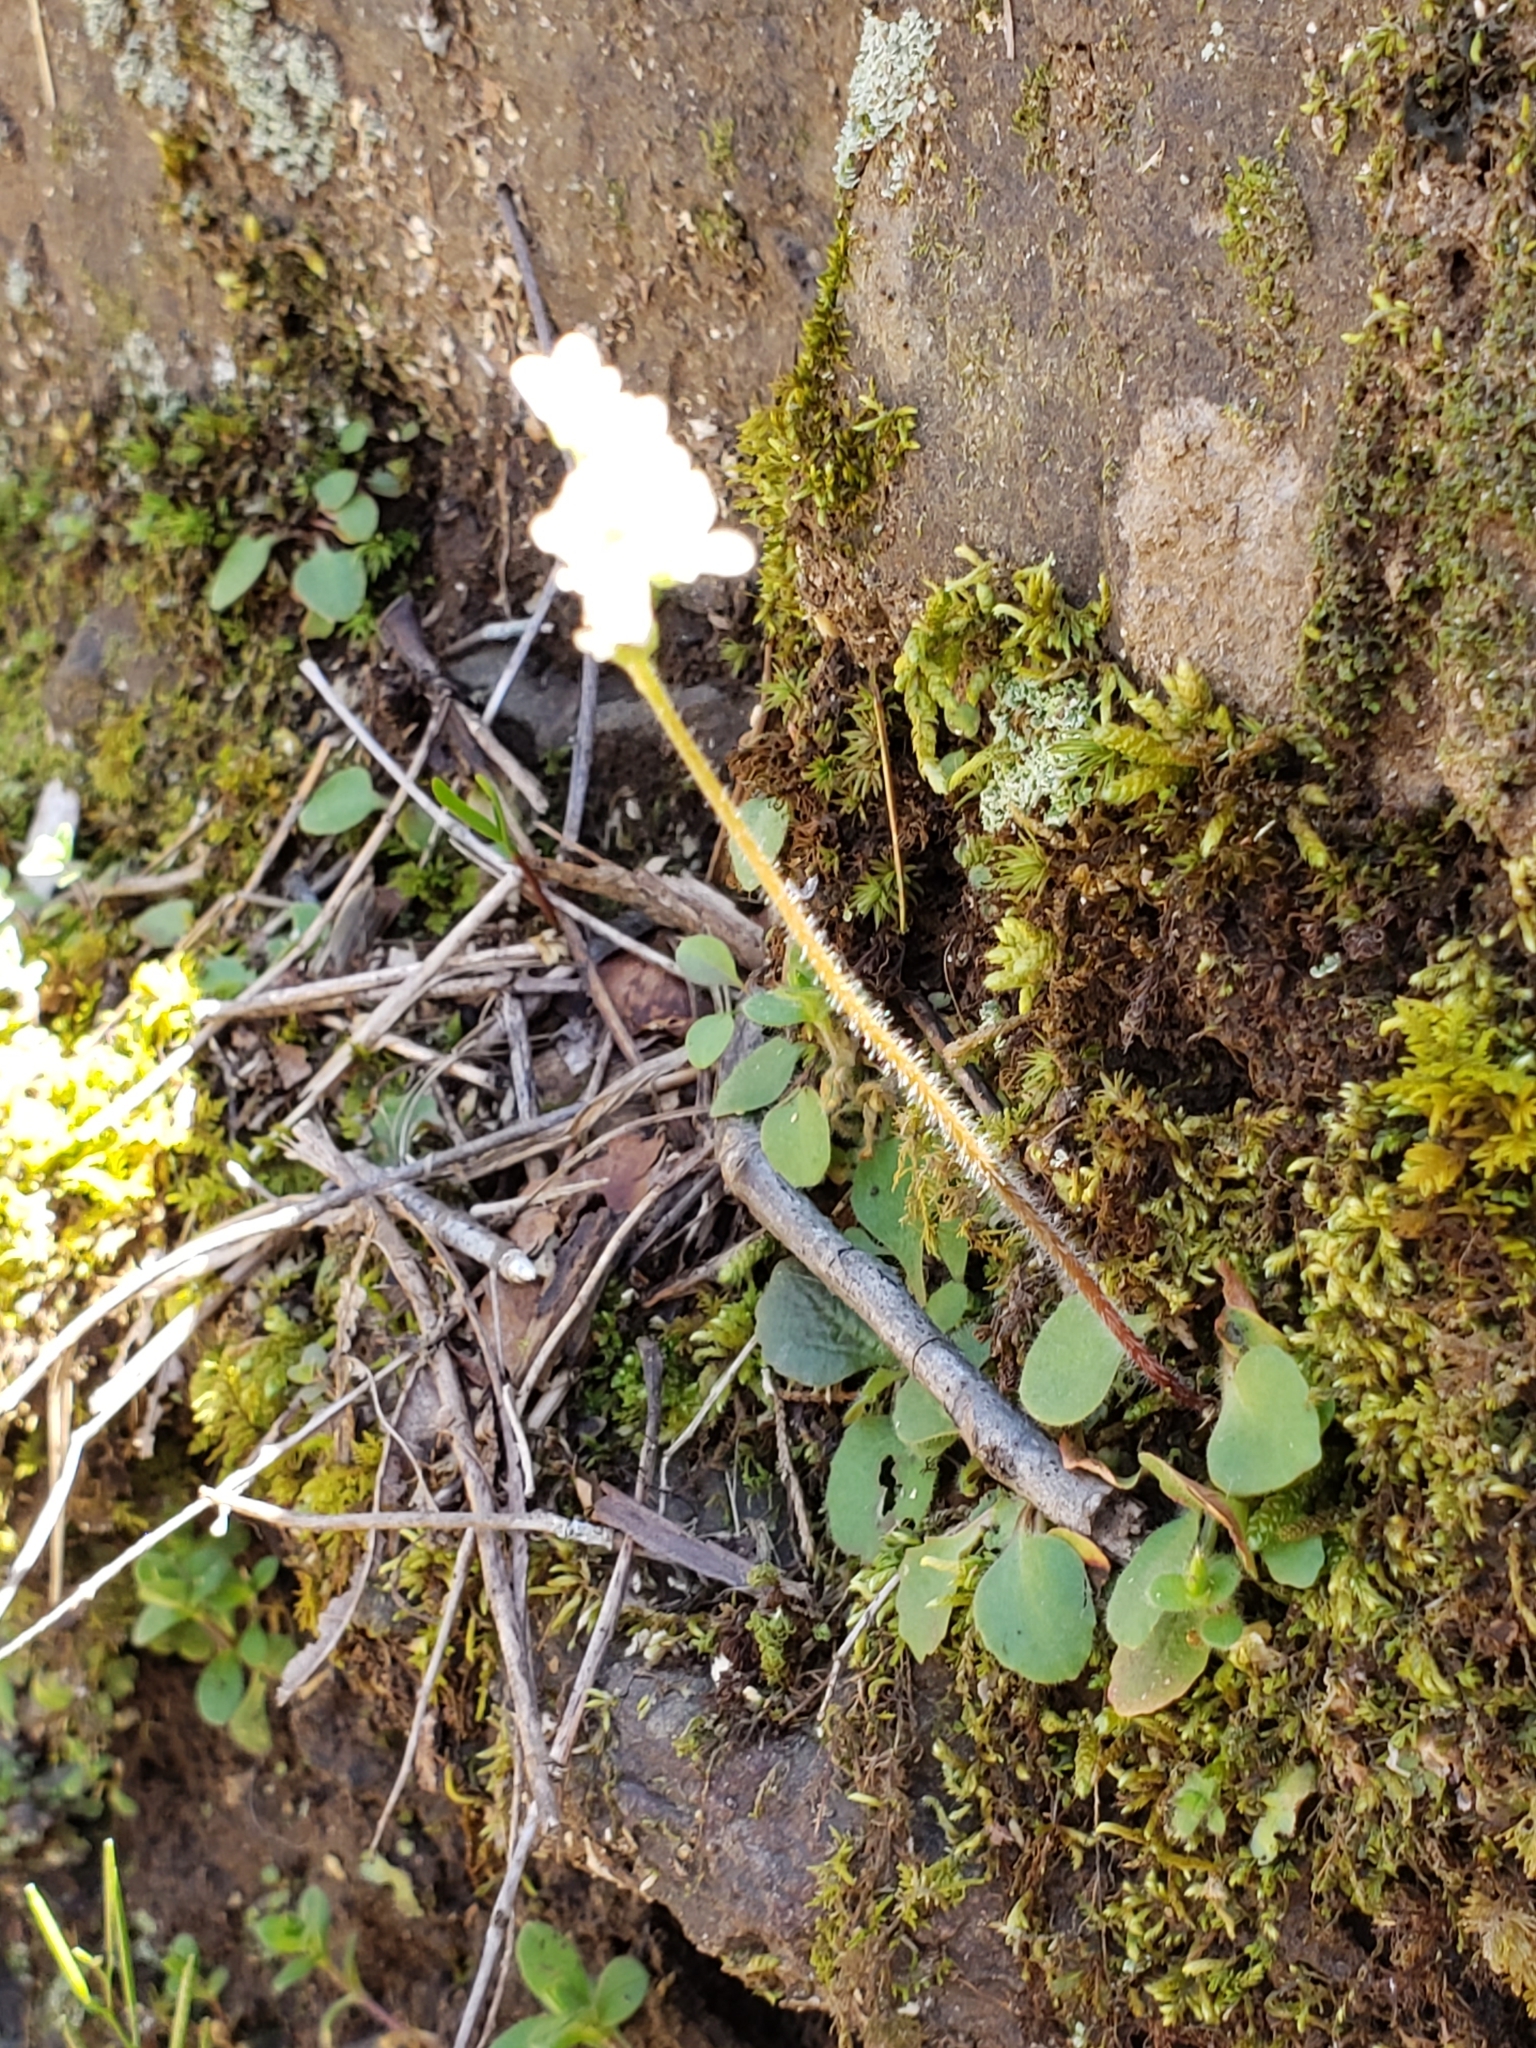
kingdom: Plantae
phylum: Tracheophyta
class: Magnoliopsida
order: Saxifragales
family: Saxifragaceae
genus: Micranthes
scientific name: Micranthes palmeri
